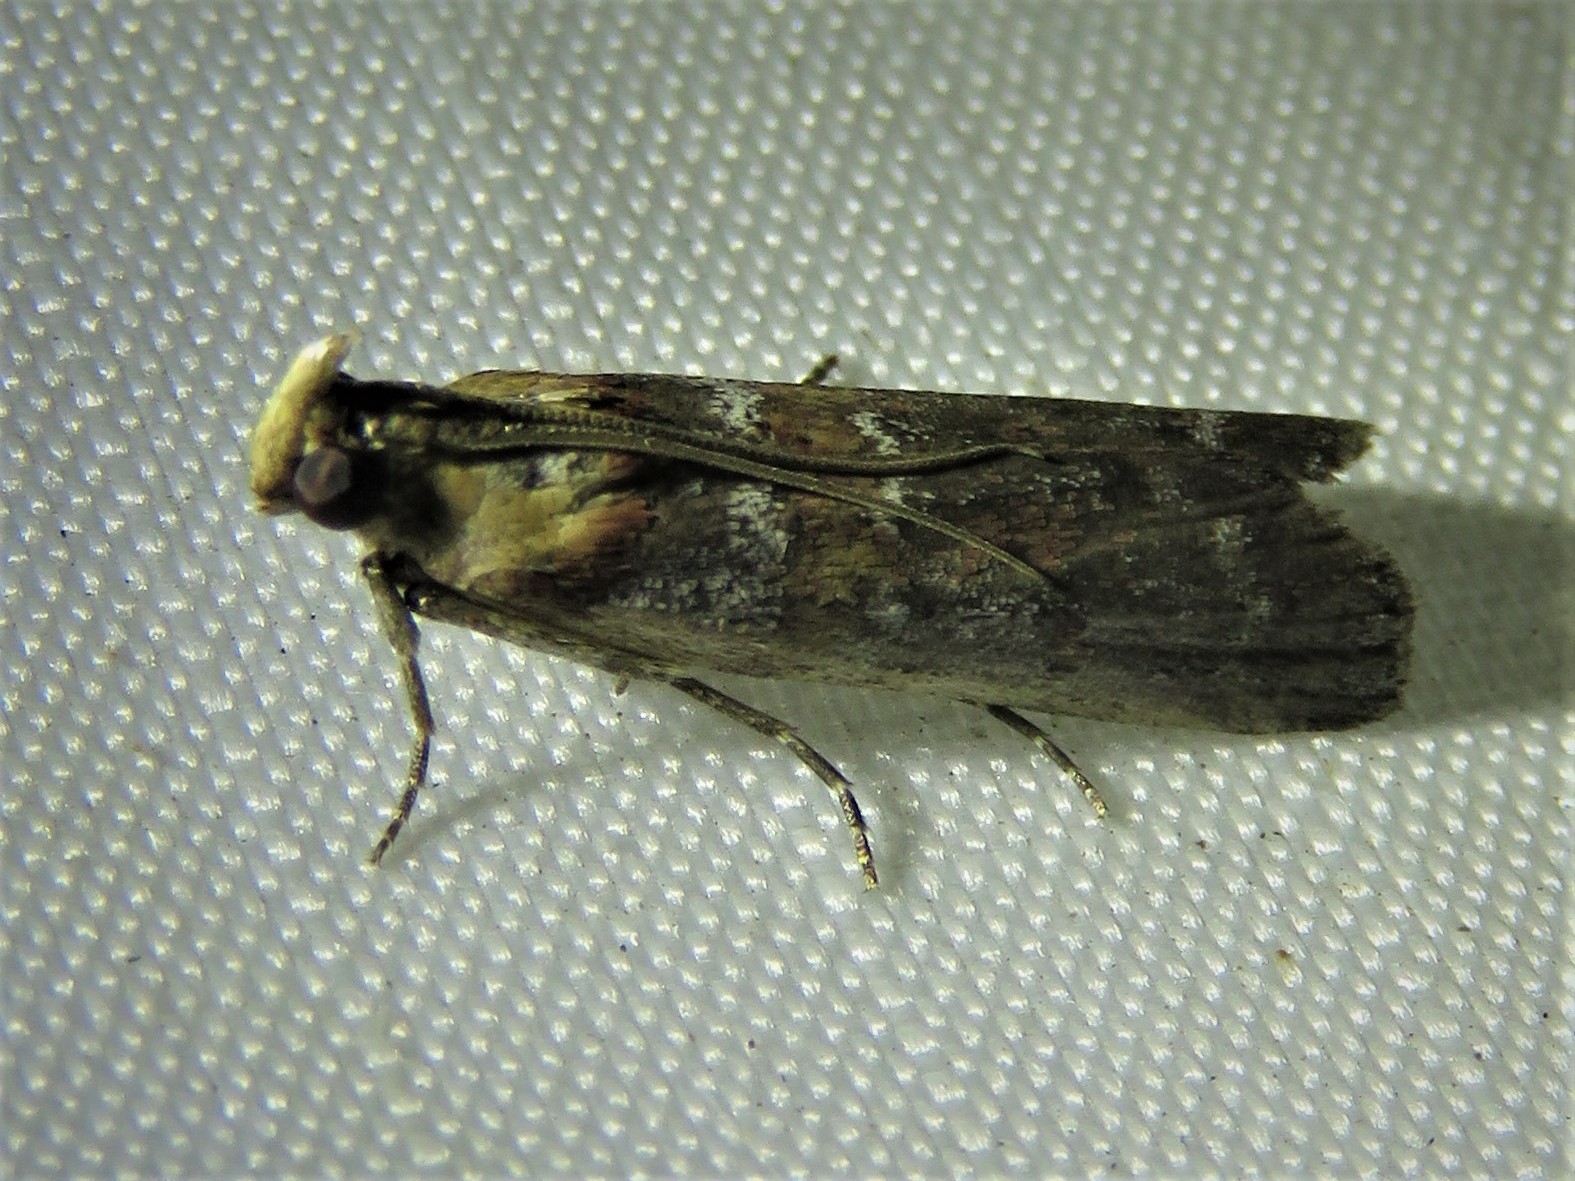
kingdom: Animalia
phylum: Arthropoda
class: Insecta
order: Lepidoptera
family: Pyralidae
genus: Adelphia
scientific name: Adelphia petrella
